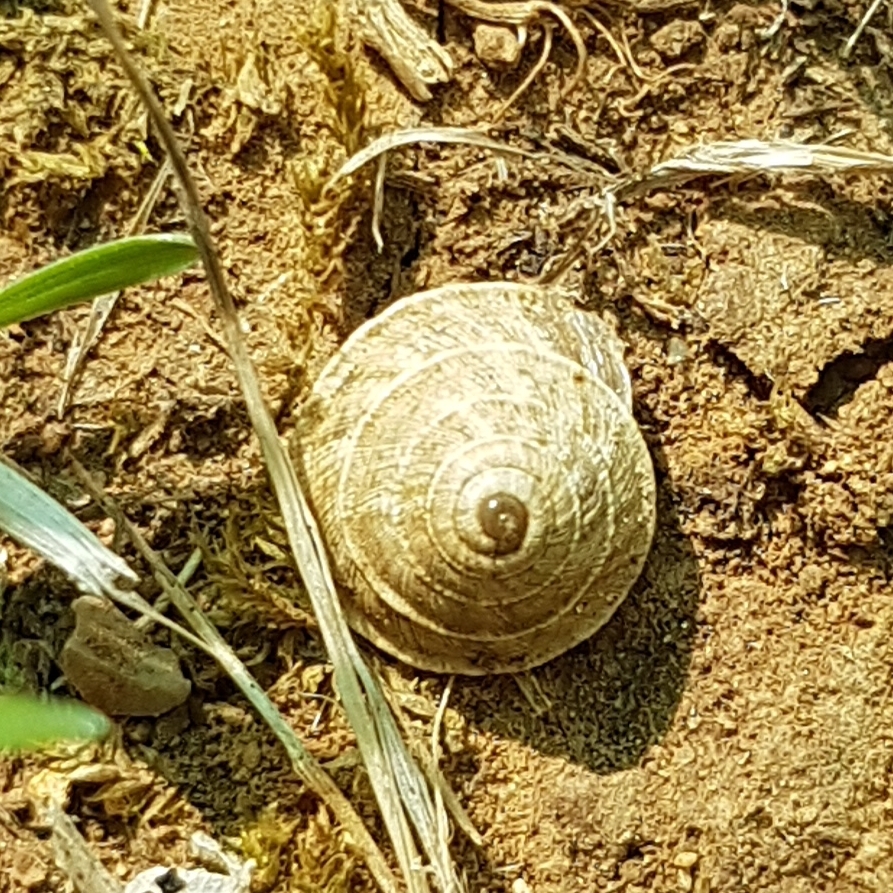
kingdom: Animalia
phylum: Mollusca
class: Gastropoda
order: Stylommatophora
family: Geomitridae
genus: Trochoidea
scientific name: Trochoidea elegans
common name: Elegant helicellid
